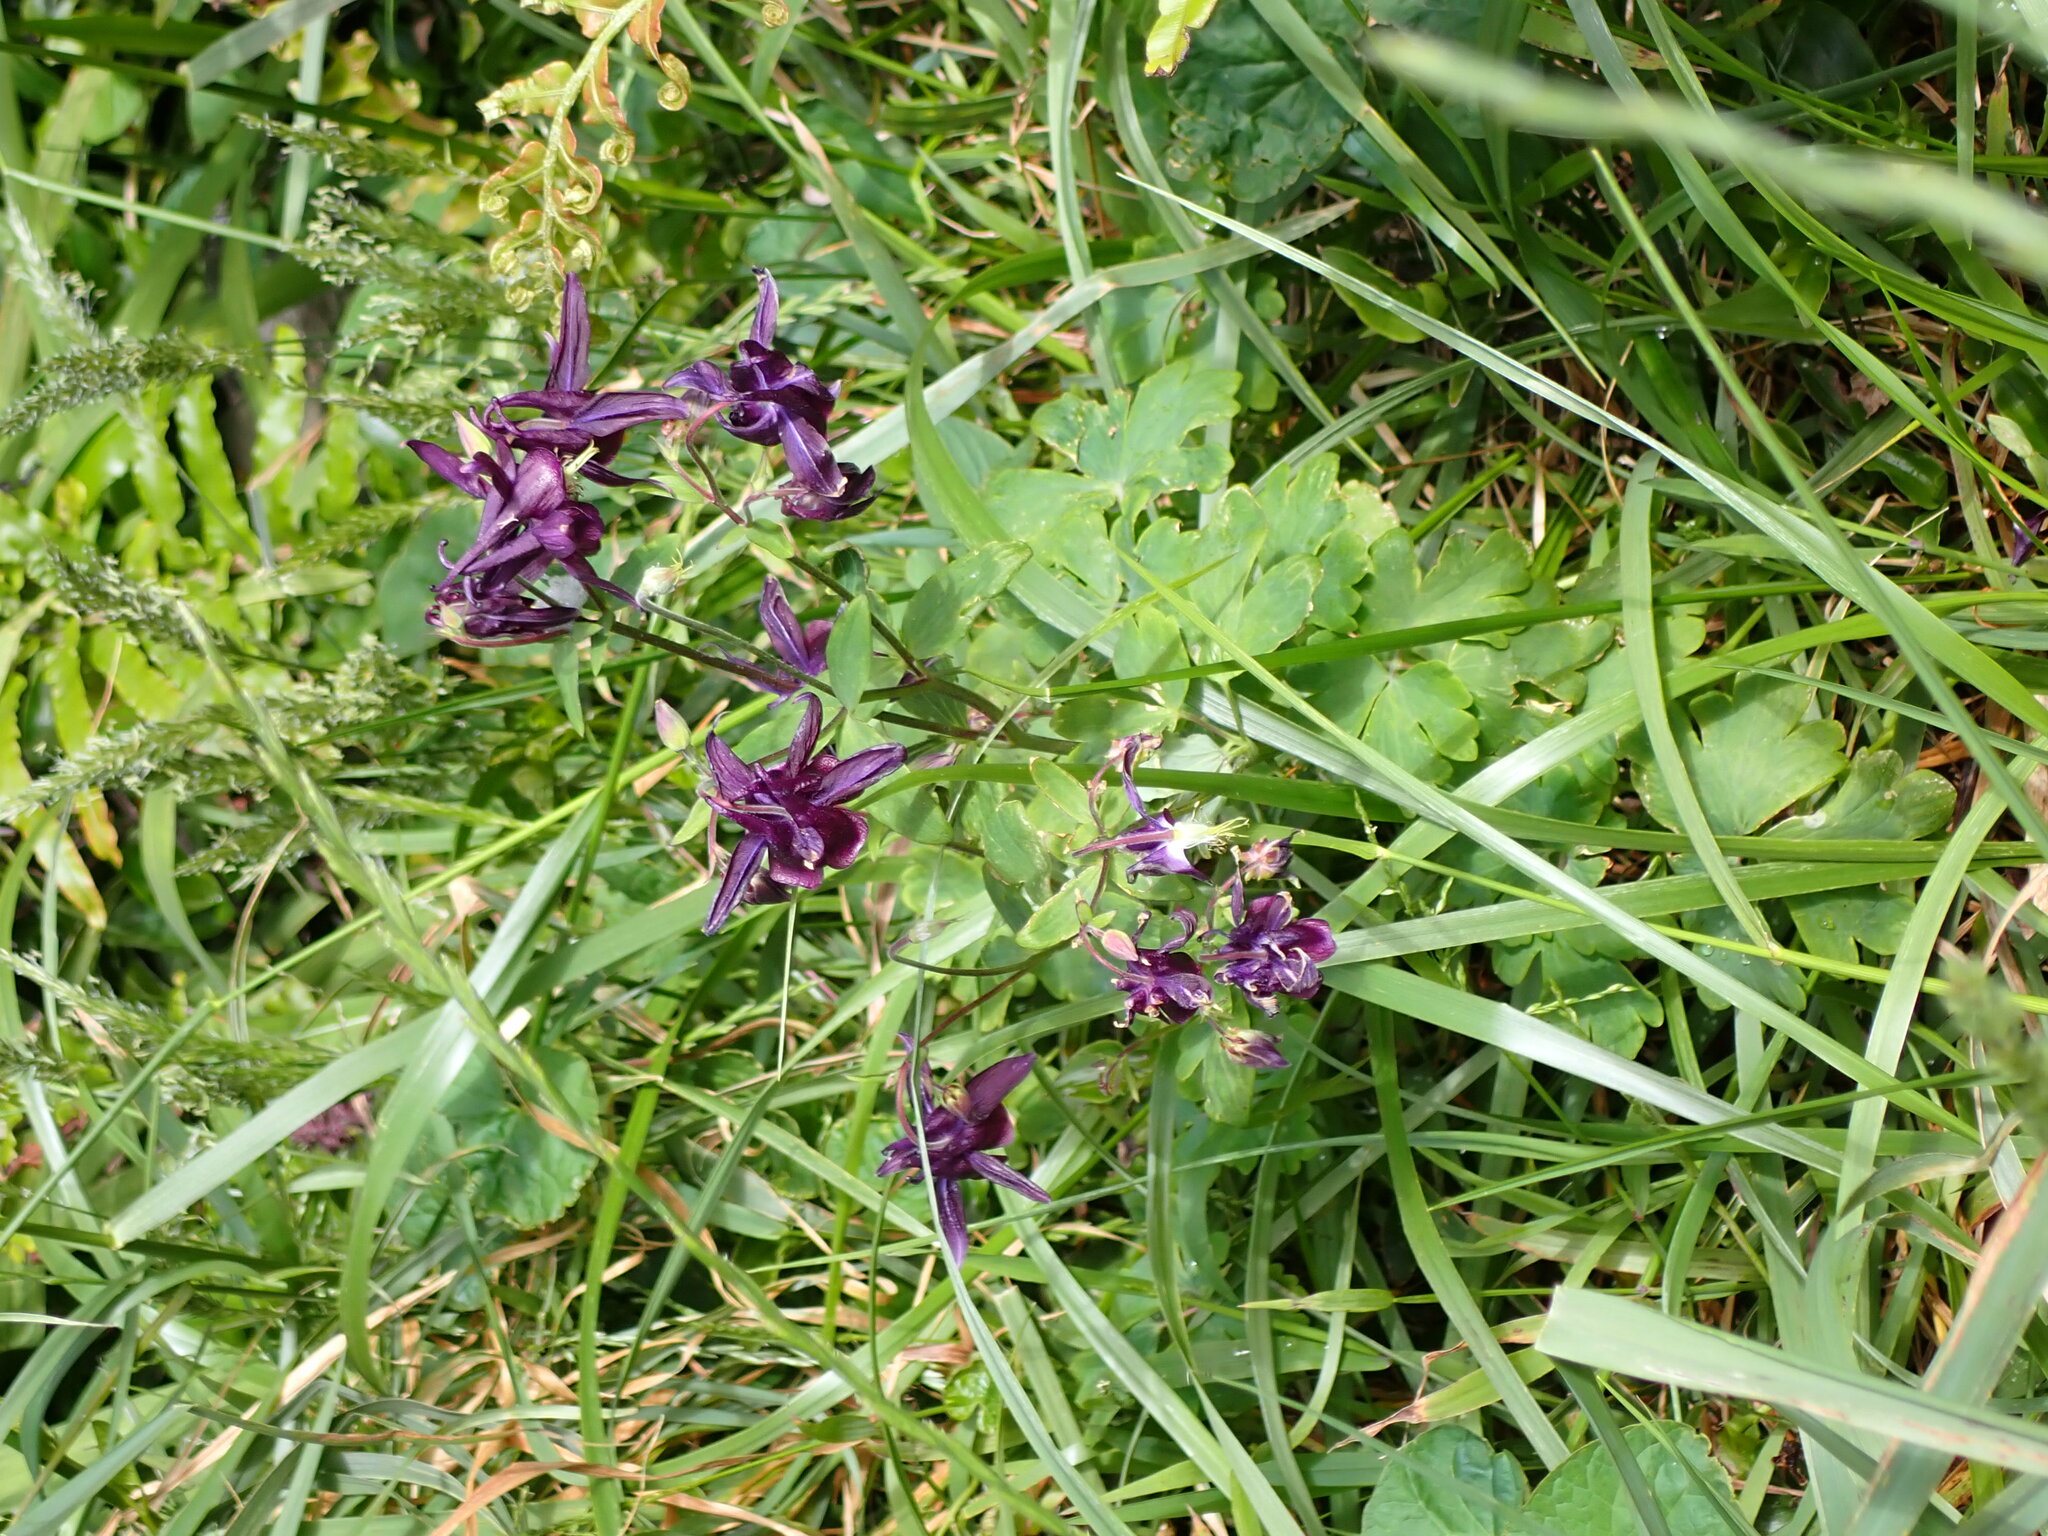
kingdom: Plantae
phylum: Tracheophyta
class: Magnoliopsida
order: Ranunculales
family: Ranunculaceae
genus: Aquilegia
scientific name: Aquilegia vulgaris
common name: Columbine
